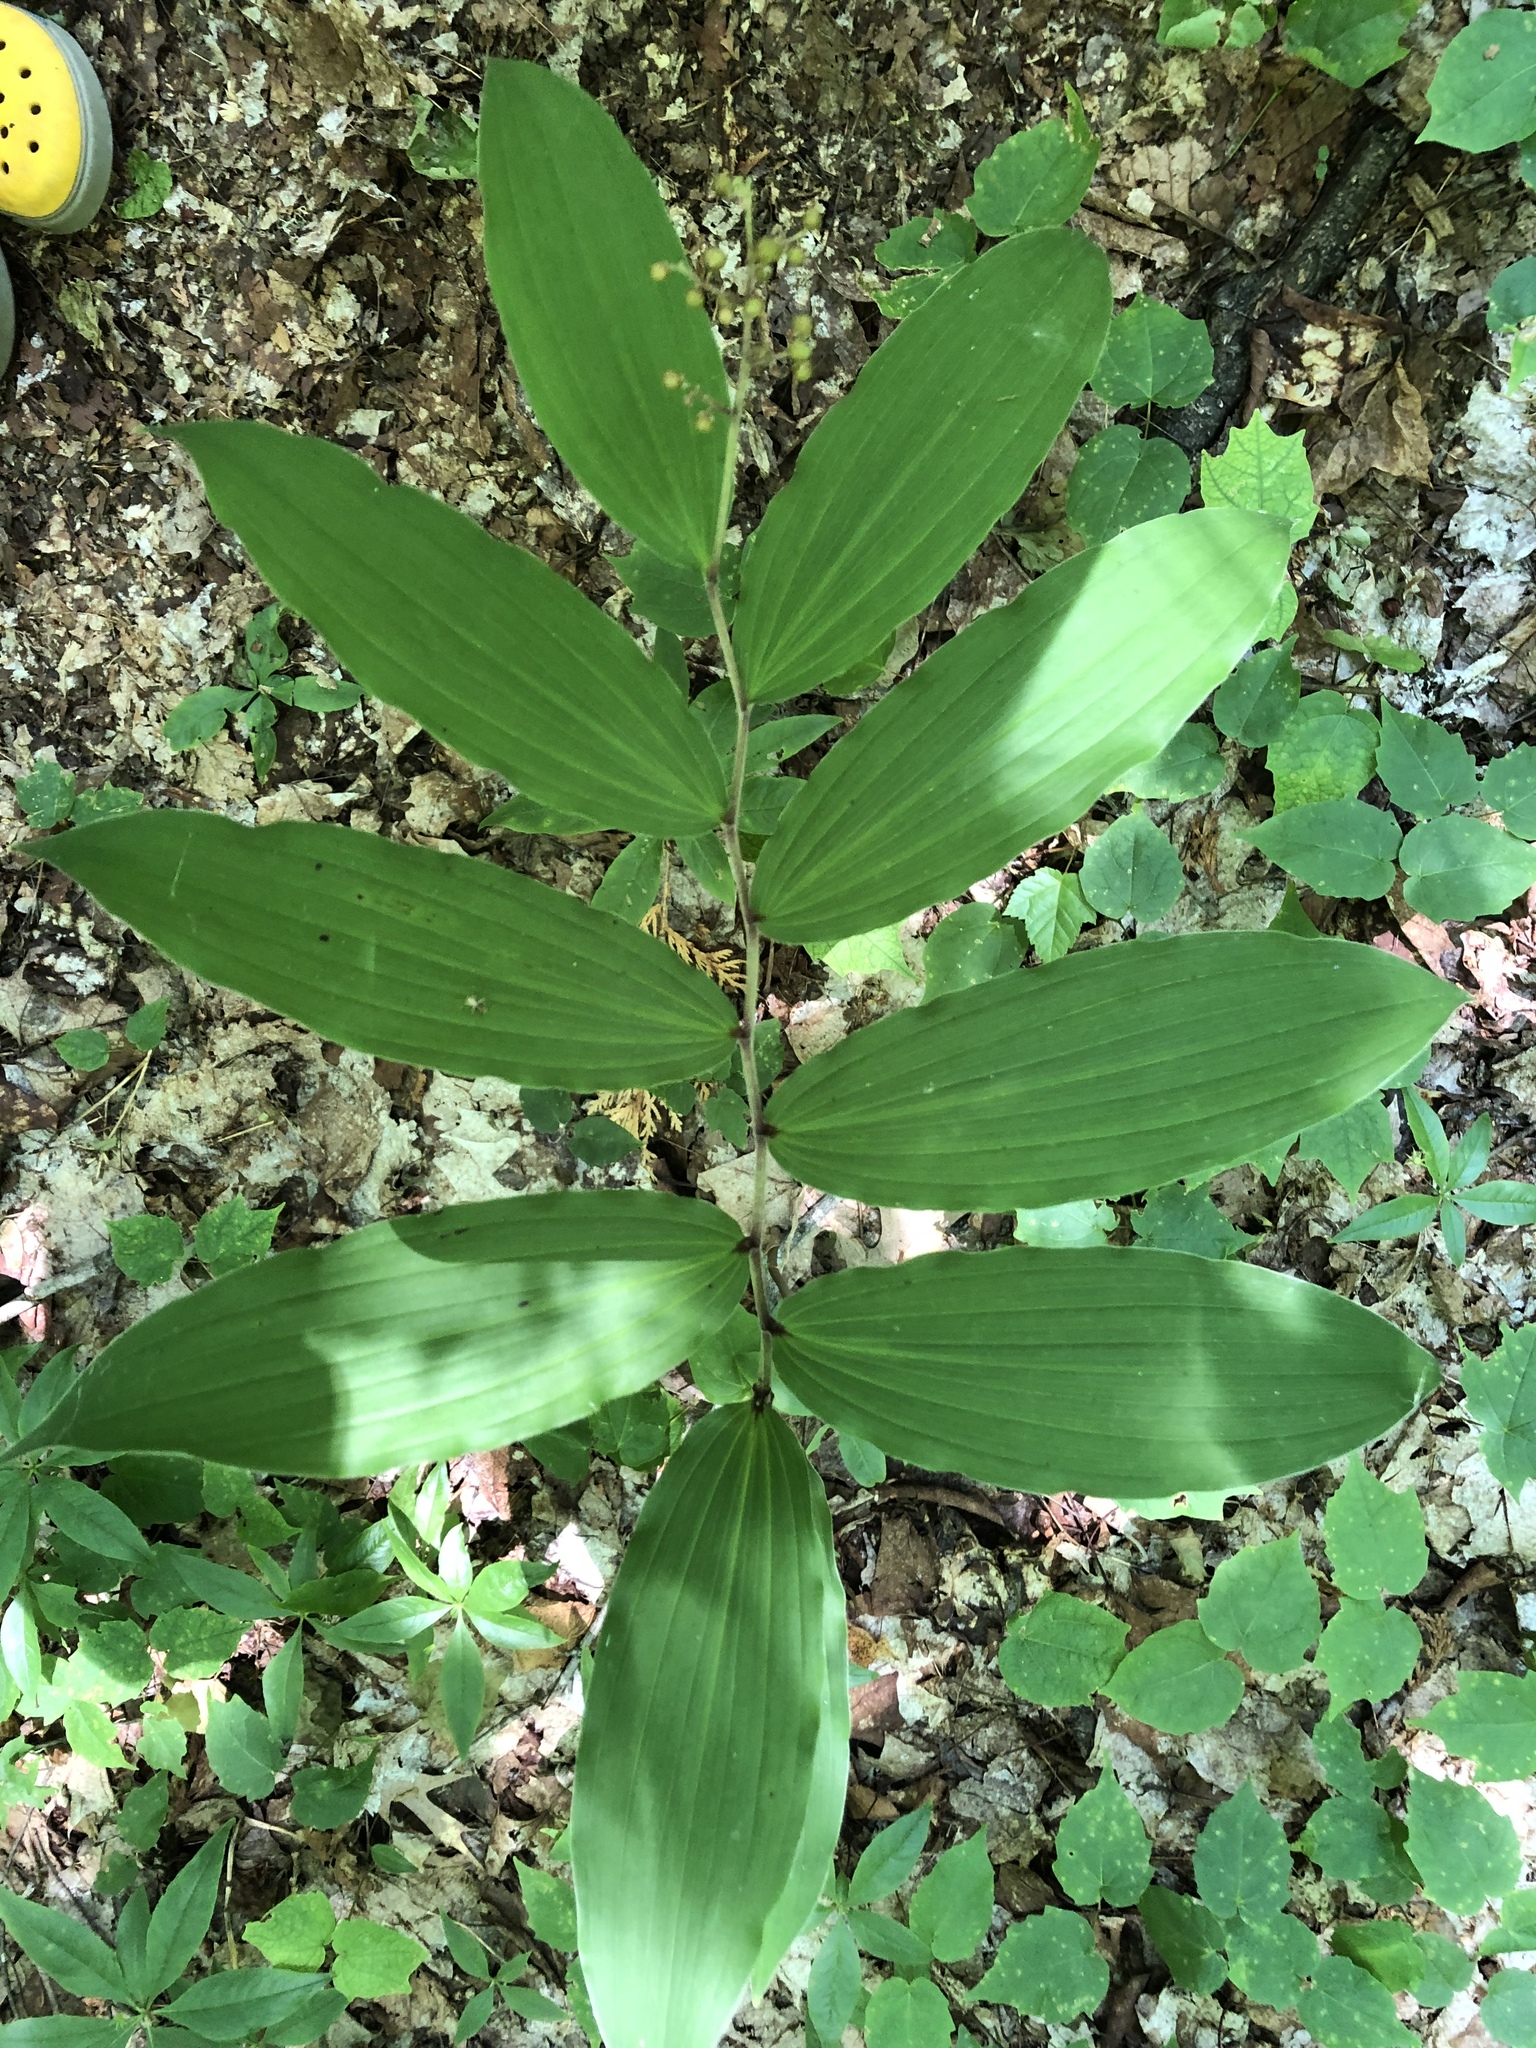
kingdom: Plantae
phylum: Tracheophyta
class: Liliopsida
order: Asparagales
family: Asparagaceae
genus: Maianthemum
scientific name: Maianthemum racemosum
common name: False spikenard
